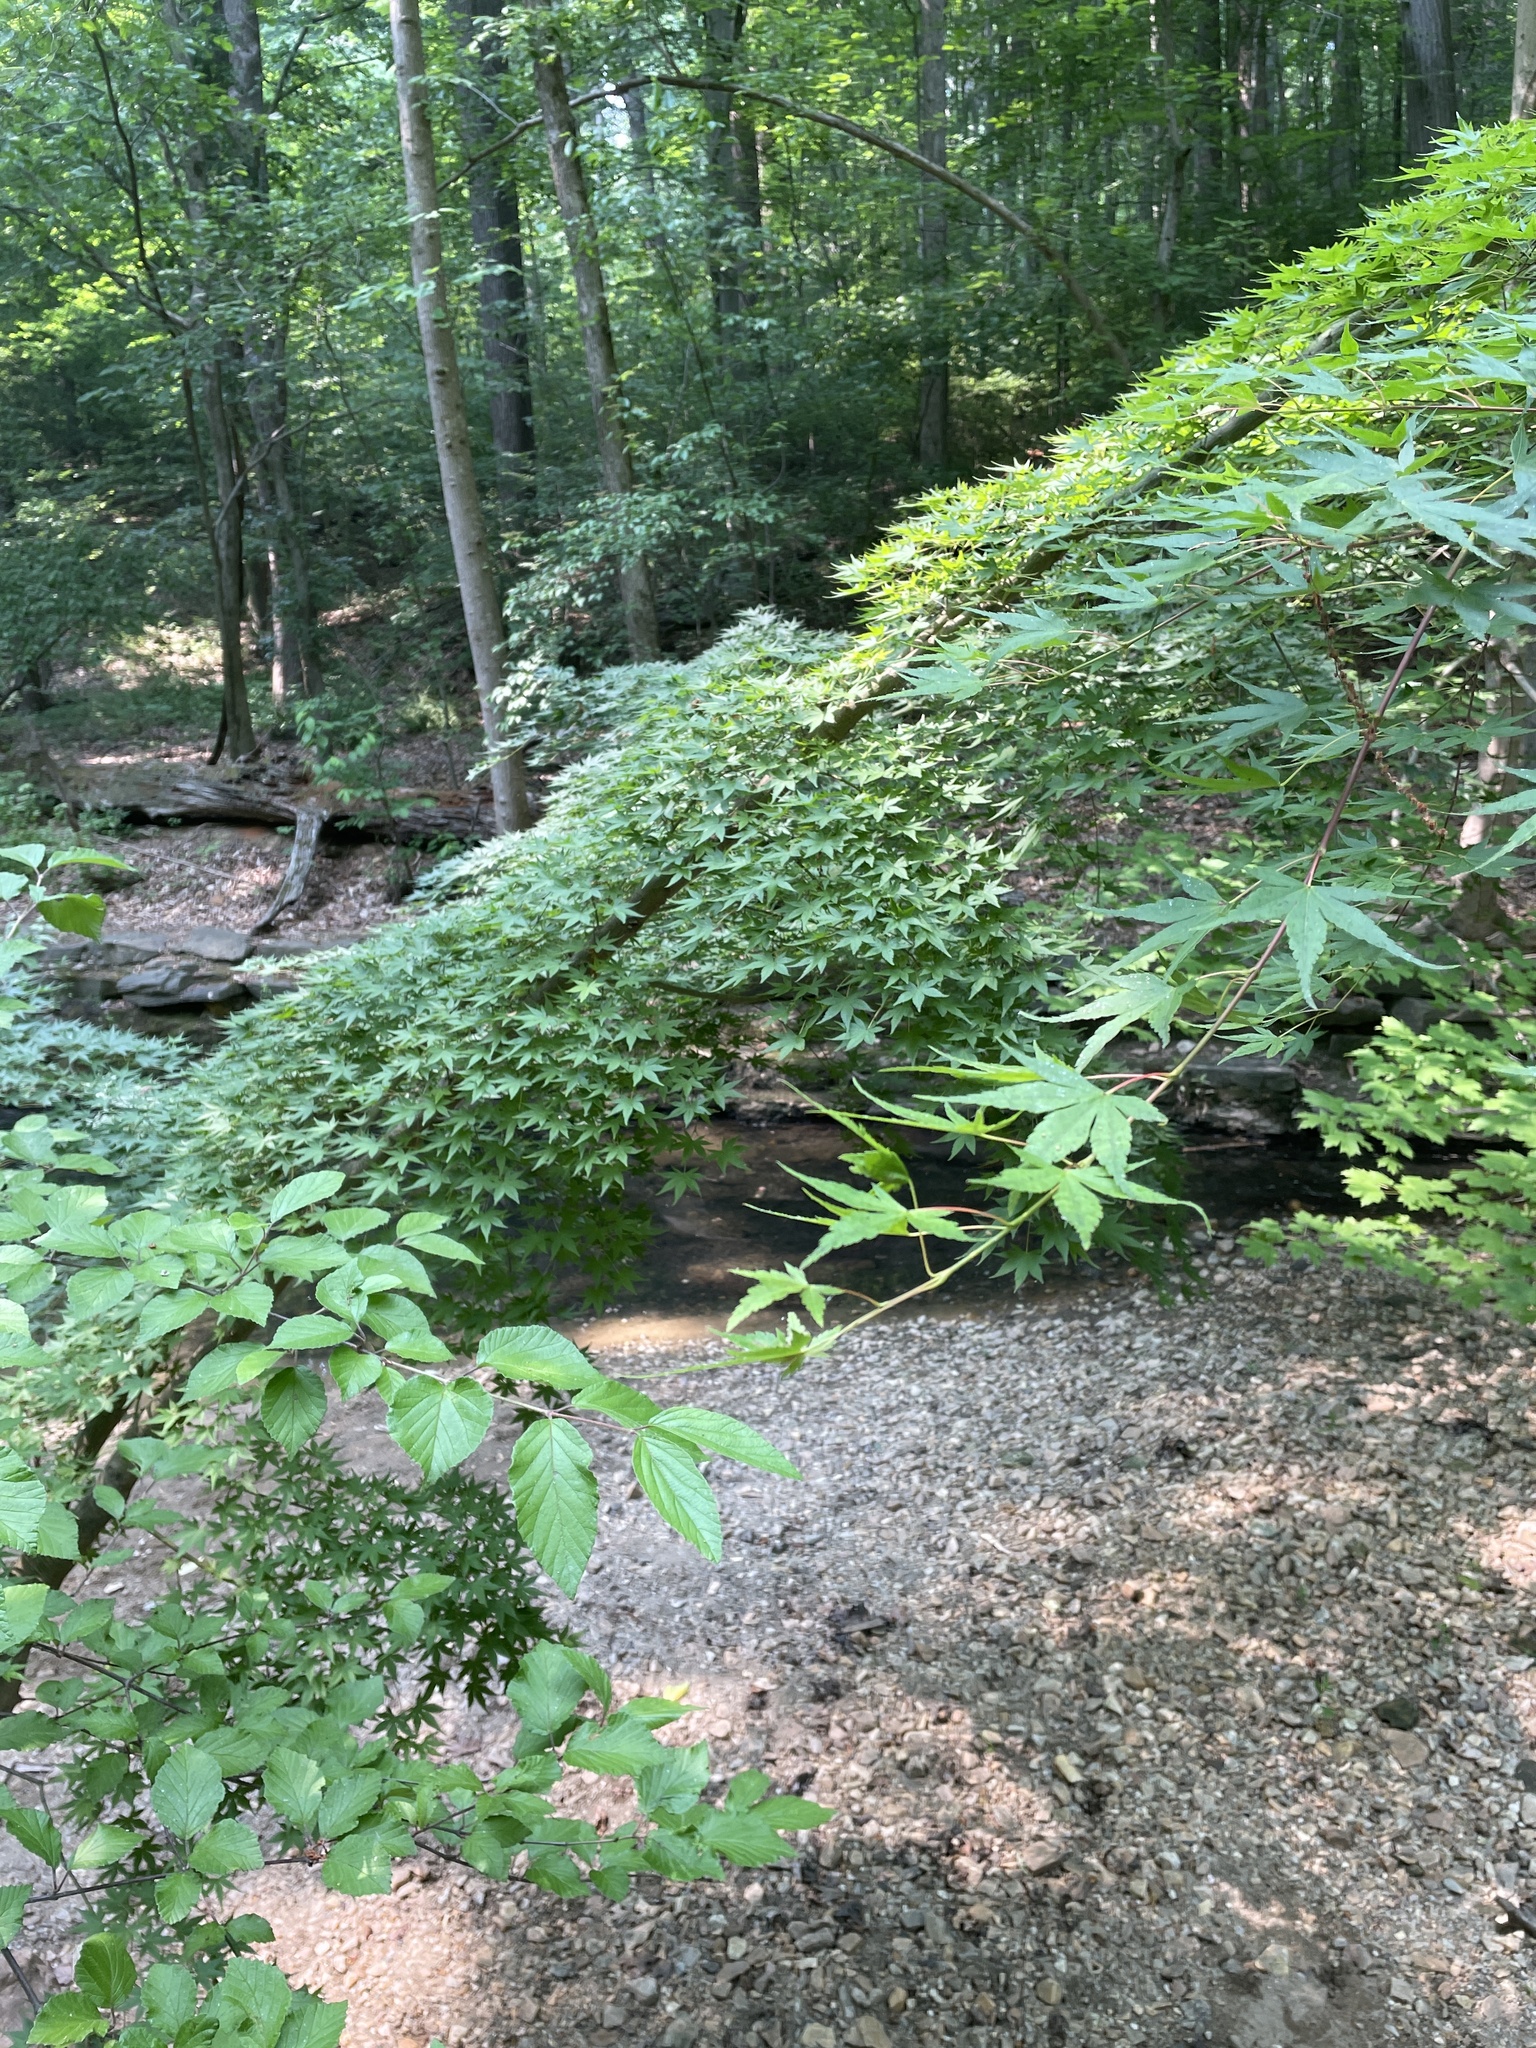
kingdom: Plantae
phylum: Tracheophyta
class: Magnoliopsida
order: Sapindales
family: Sapindaceae
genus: Acer
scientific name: Acer palmatum
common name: Japanese maple
